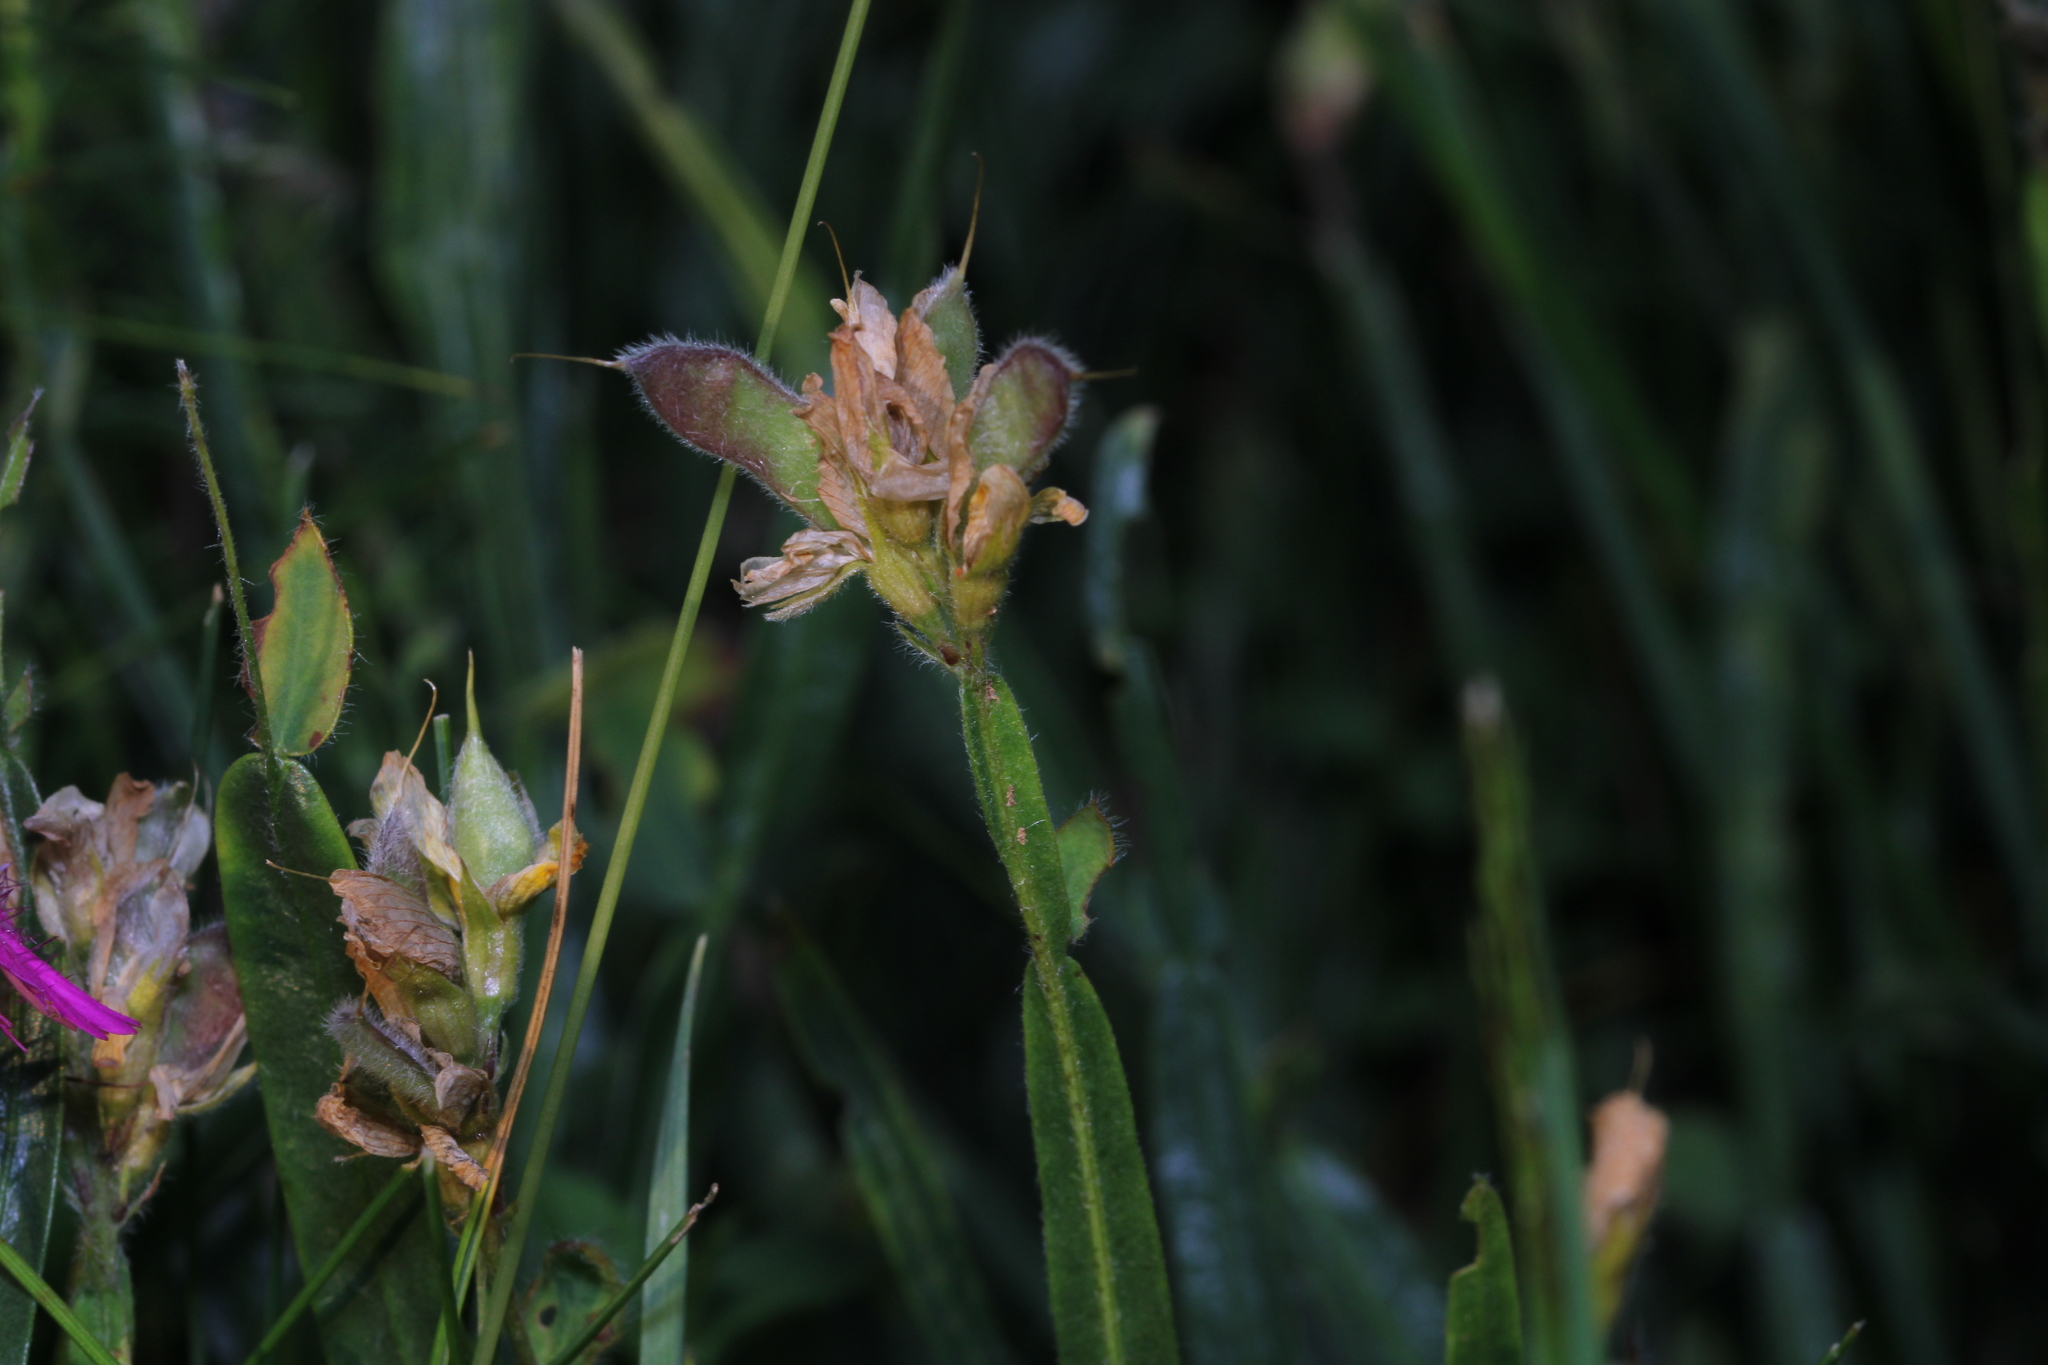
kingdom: Plantae
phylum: Tracheophyta
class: Magnoliopsida
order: Fabales
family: Fabaceae
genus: Genista
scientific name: Genista sagittalis
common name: Winged greenweed
